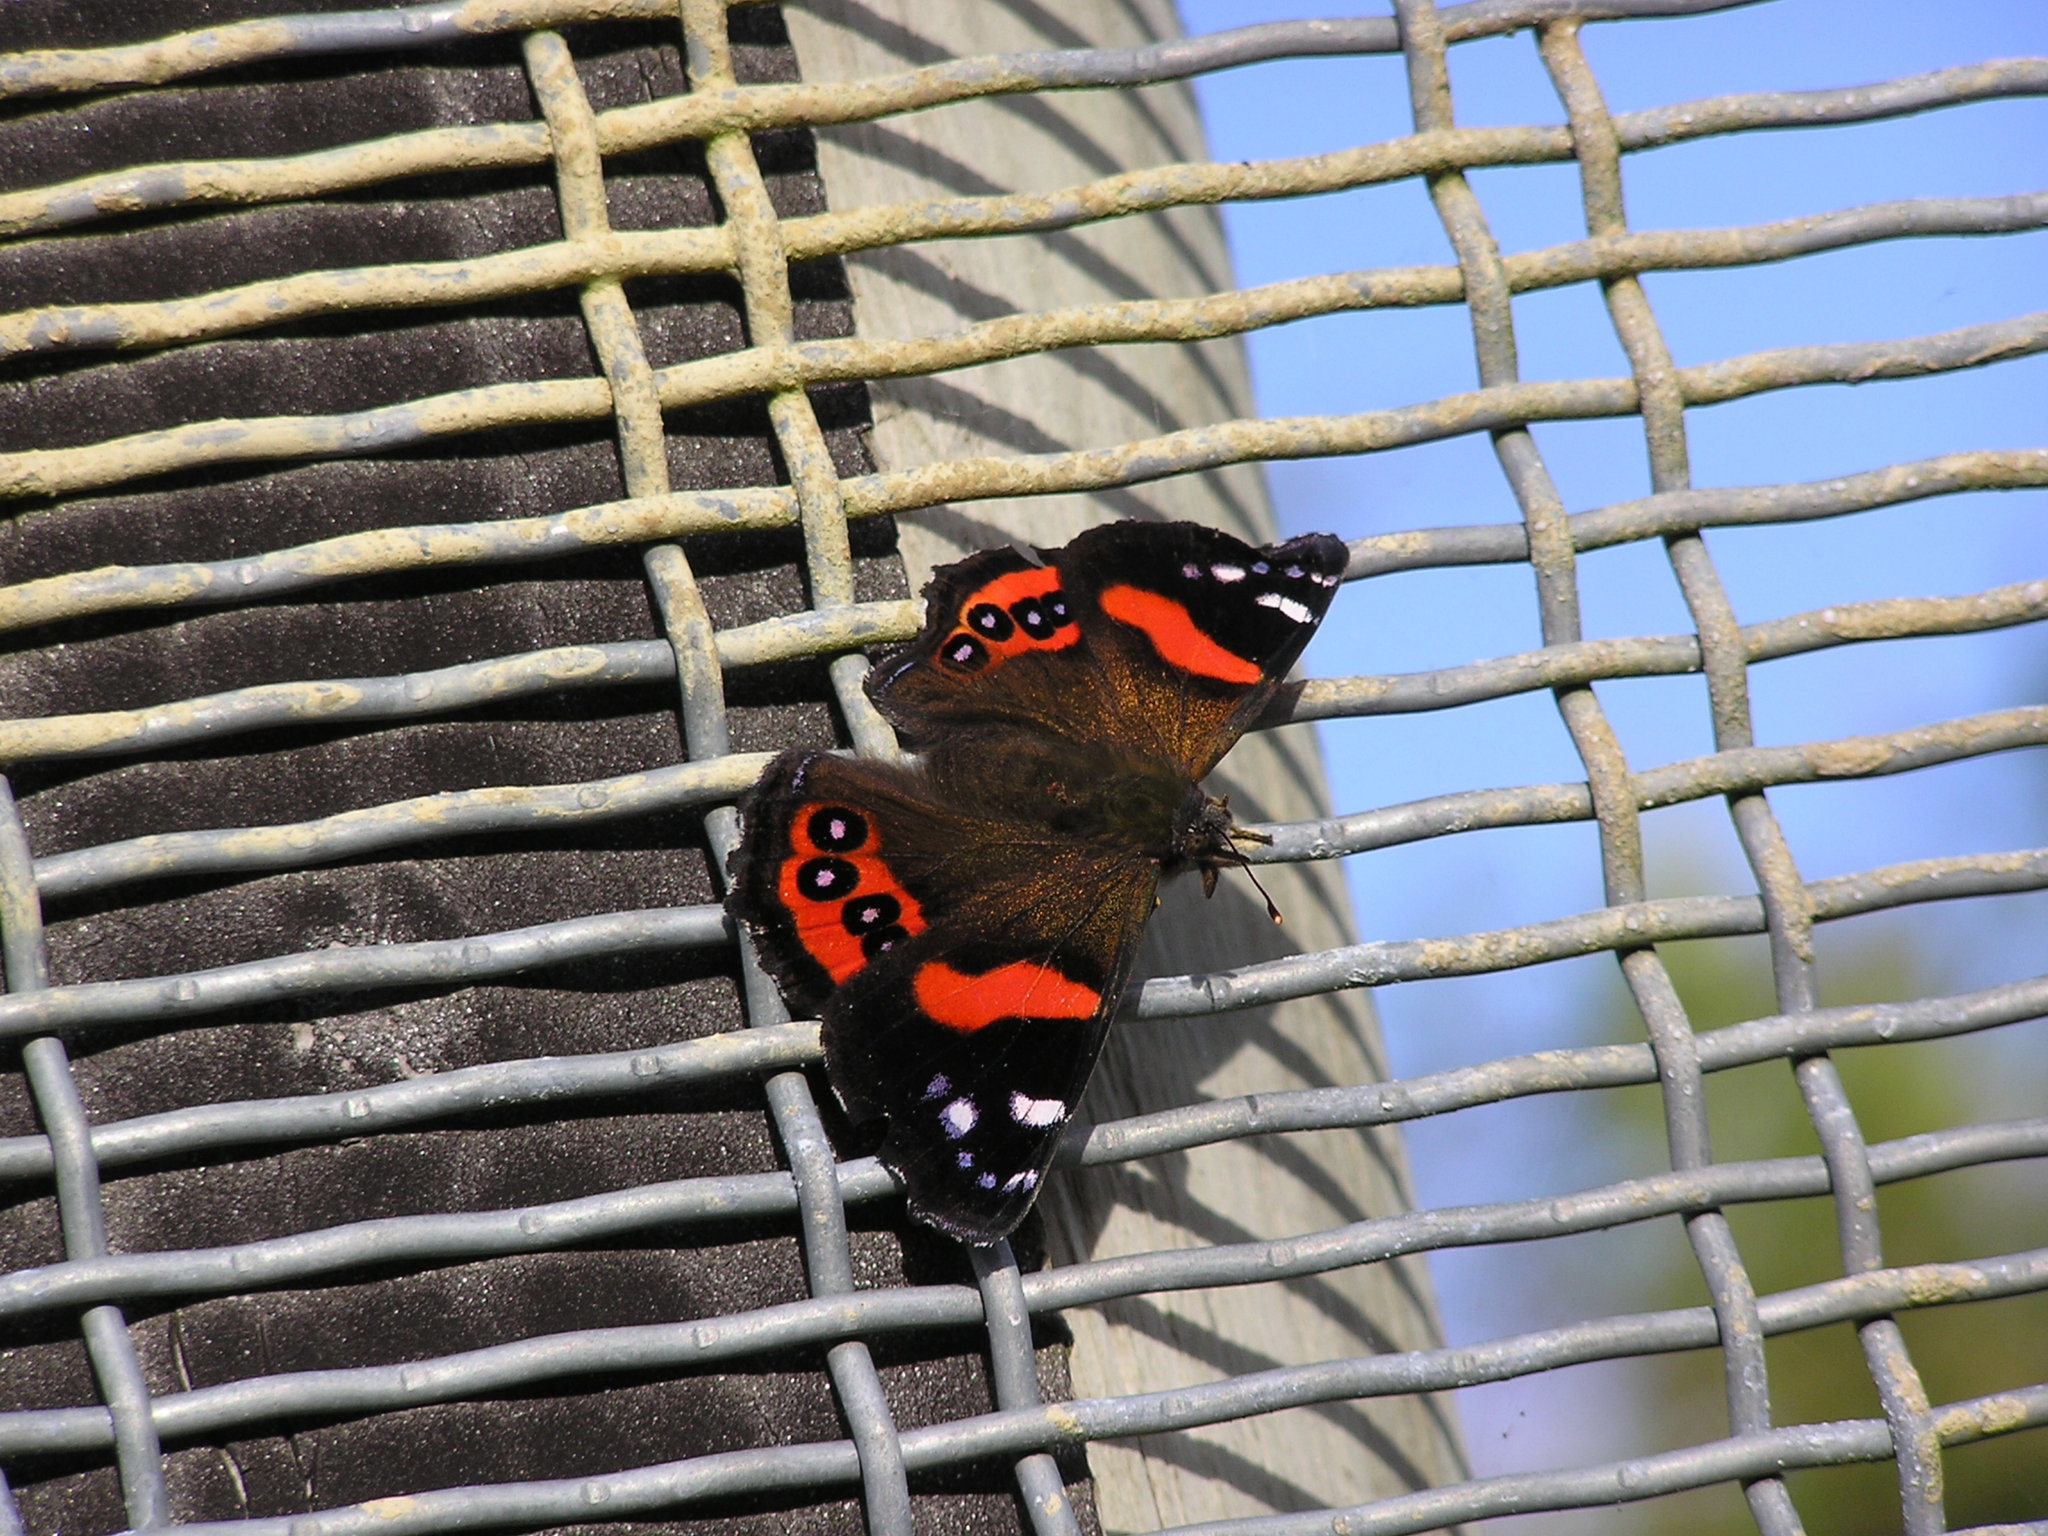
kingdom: Animalia
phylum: Arthropoda
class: Insecta
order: Lepidoptera
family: Nymphalidae
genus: Vanessa
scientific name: Vanessa gonerilla
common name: New zealand red admiral
